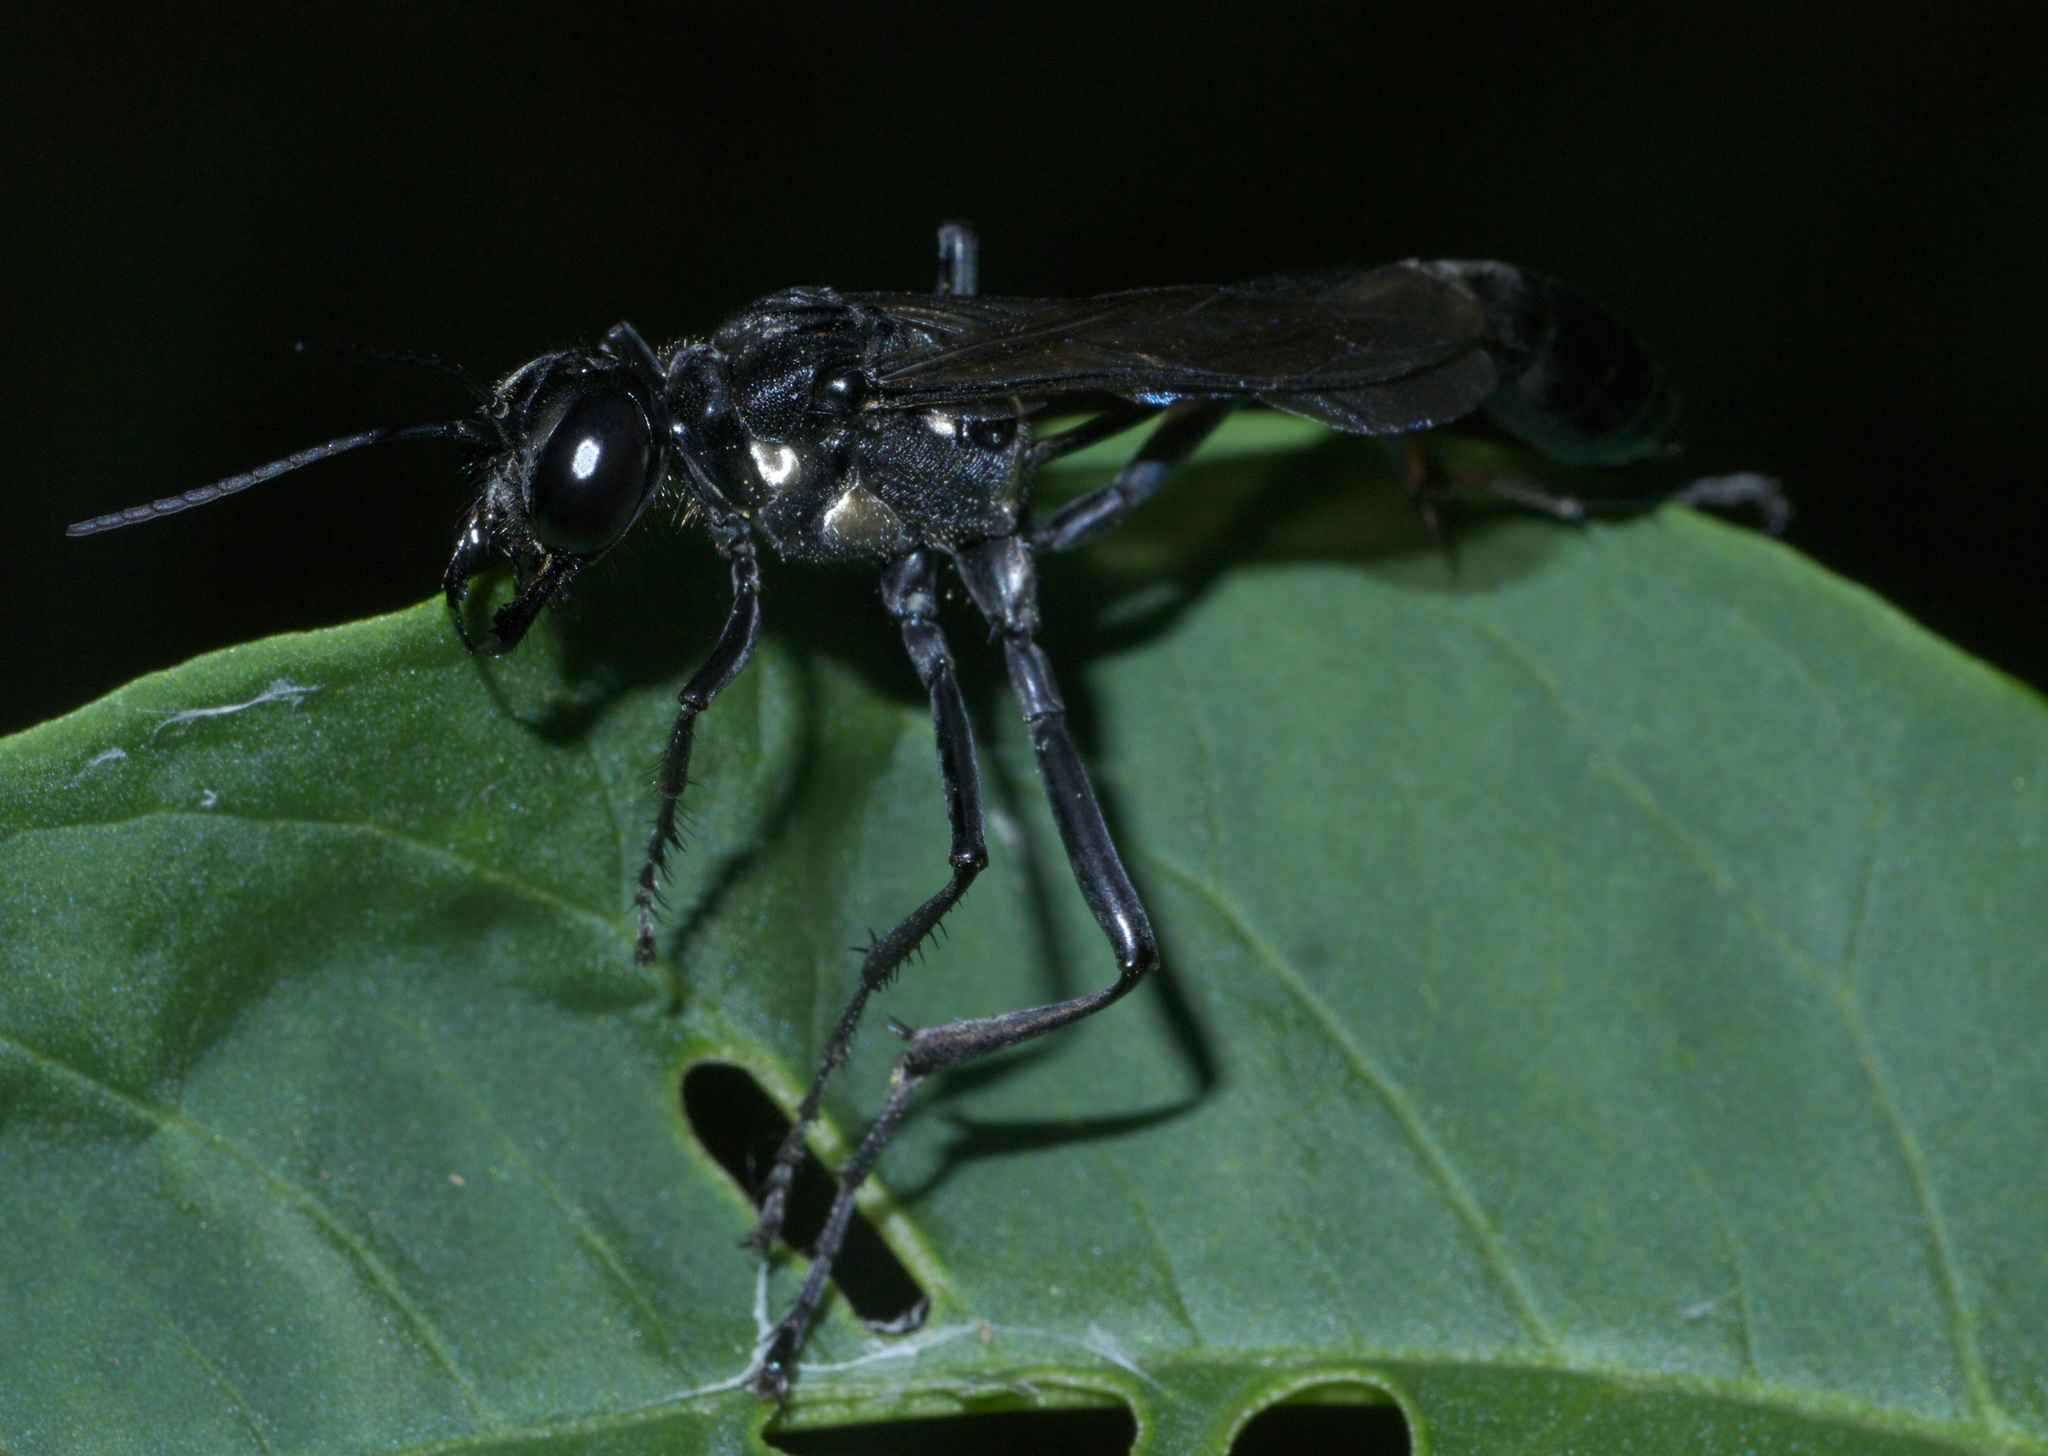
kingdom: Animalia
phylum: Arthropoda
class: Insecta
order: Hymenoptera
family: Sphecidae
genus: Eremnophila
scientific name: Eremnophila aureonotata
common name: Gold-marked thread-waisted wasp
